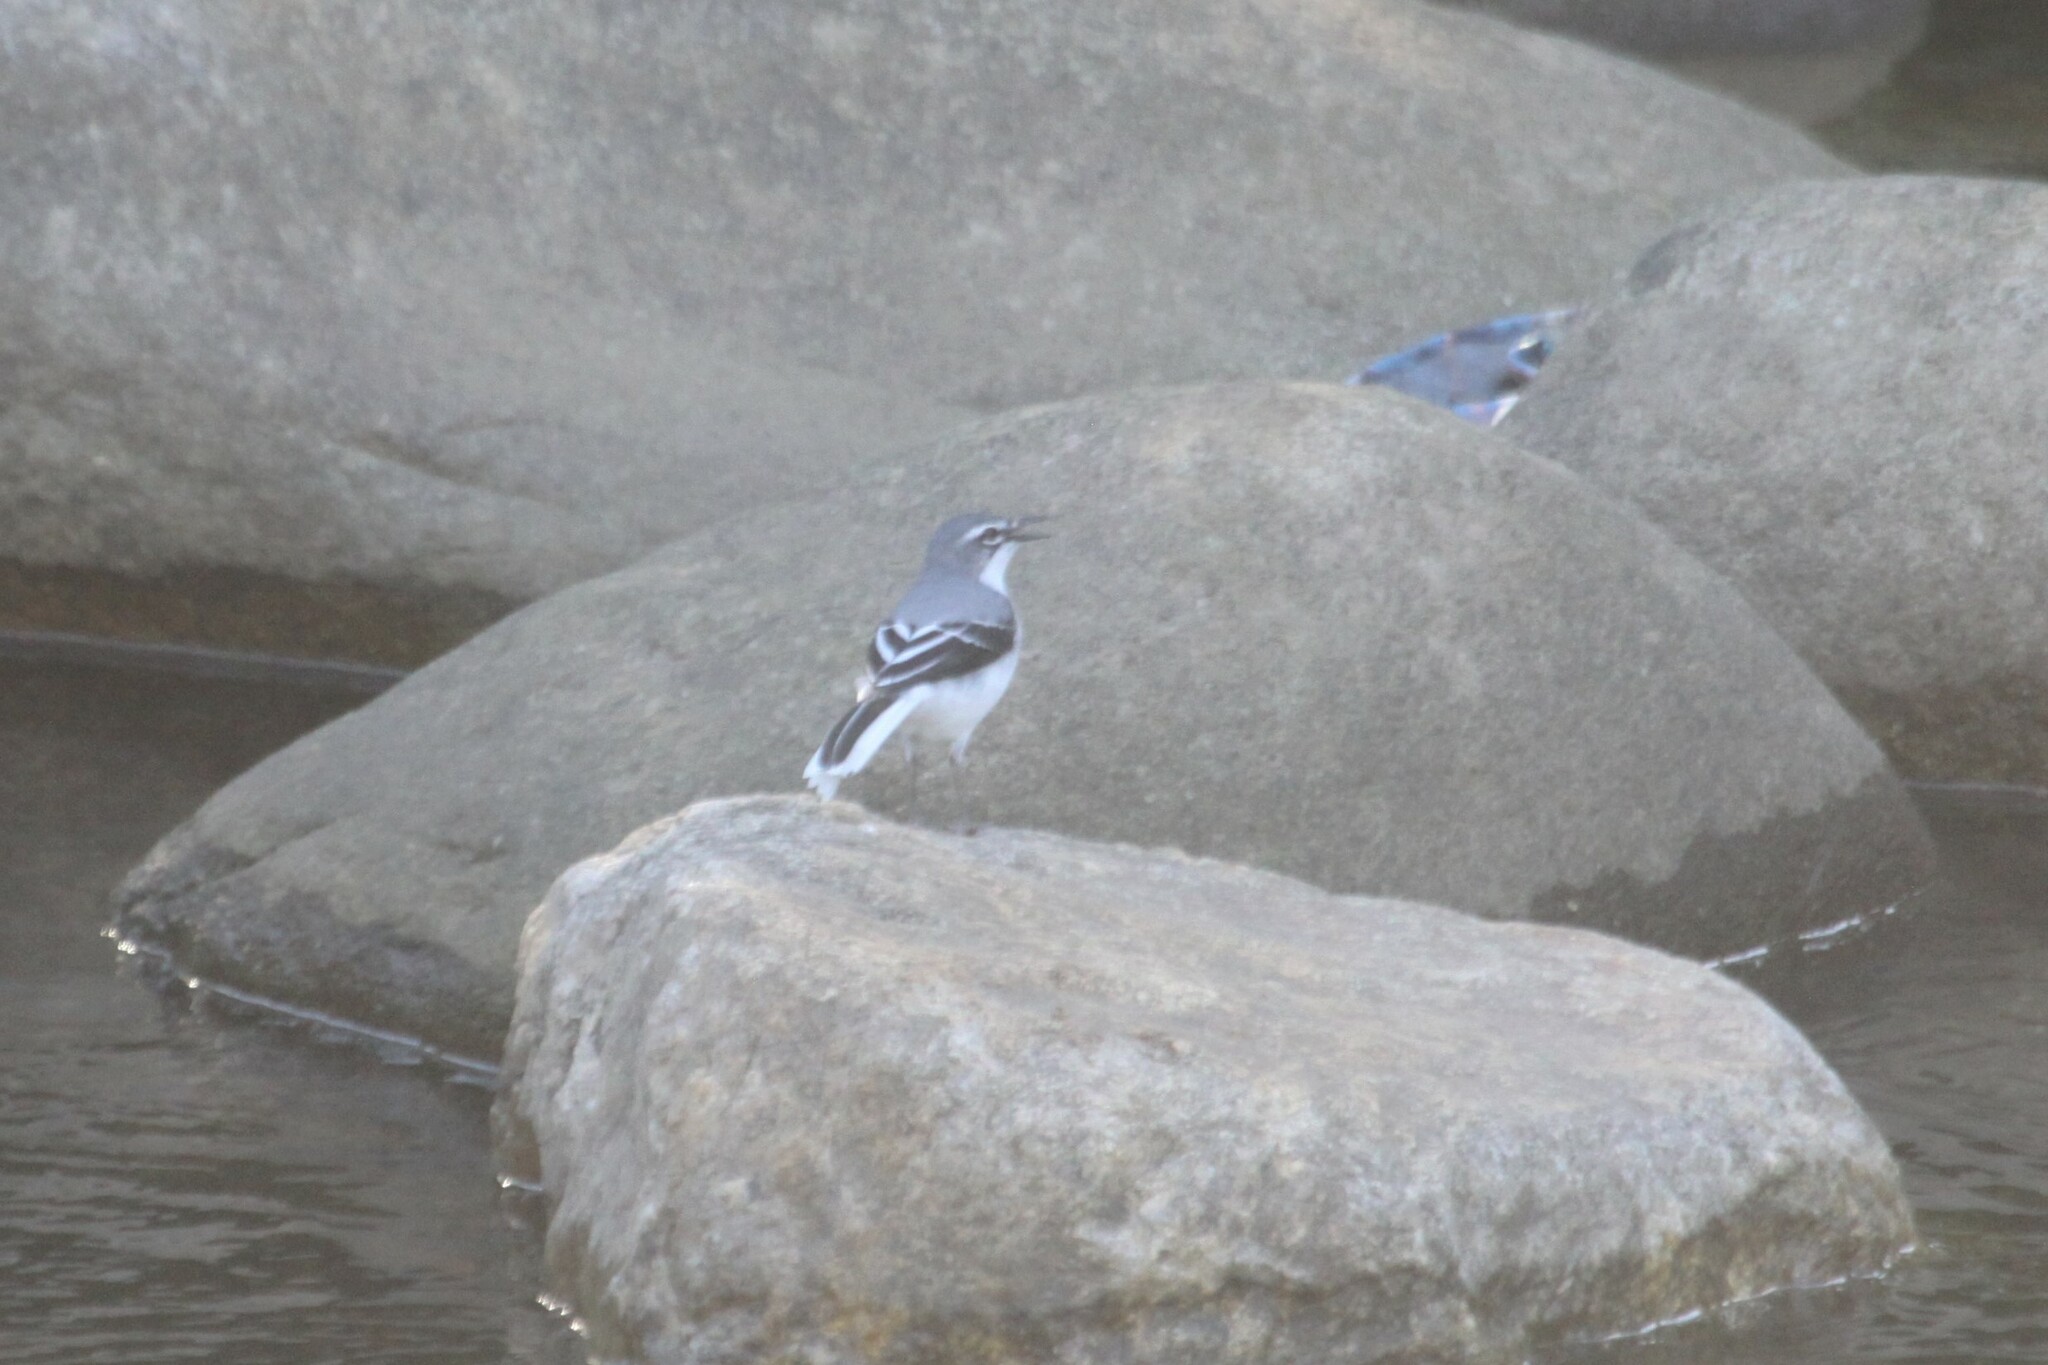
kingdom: Animalia
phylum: Chordata
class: Aves
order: Passeriformes
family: Motacillidae
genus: Motacilla
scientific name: Motacilla clara
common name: Mountain wagtail
